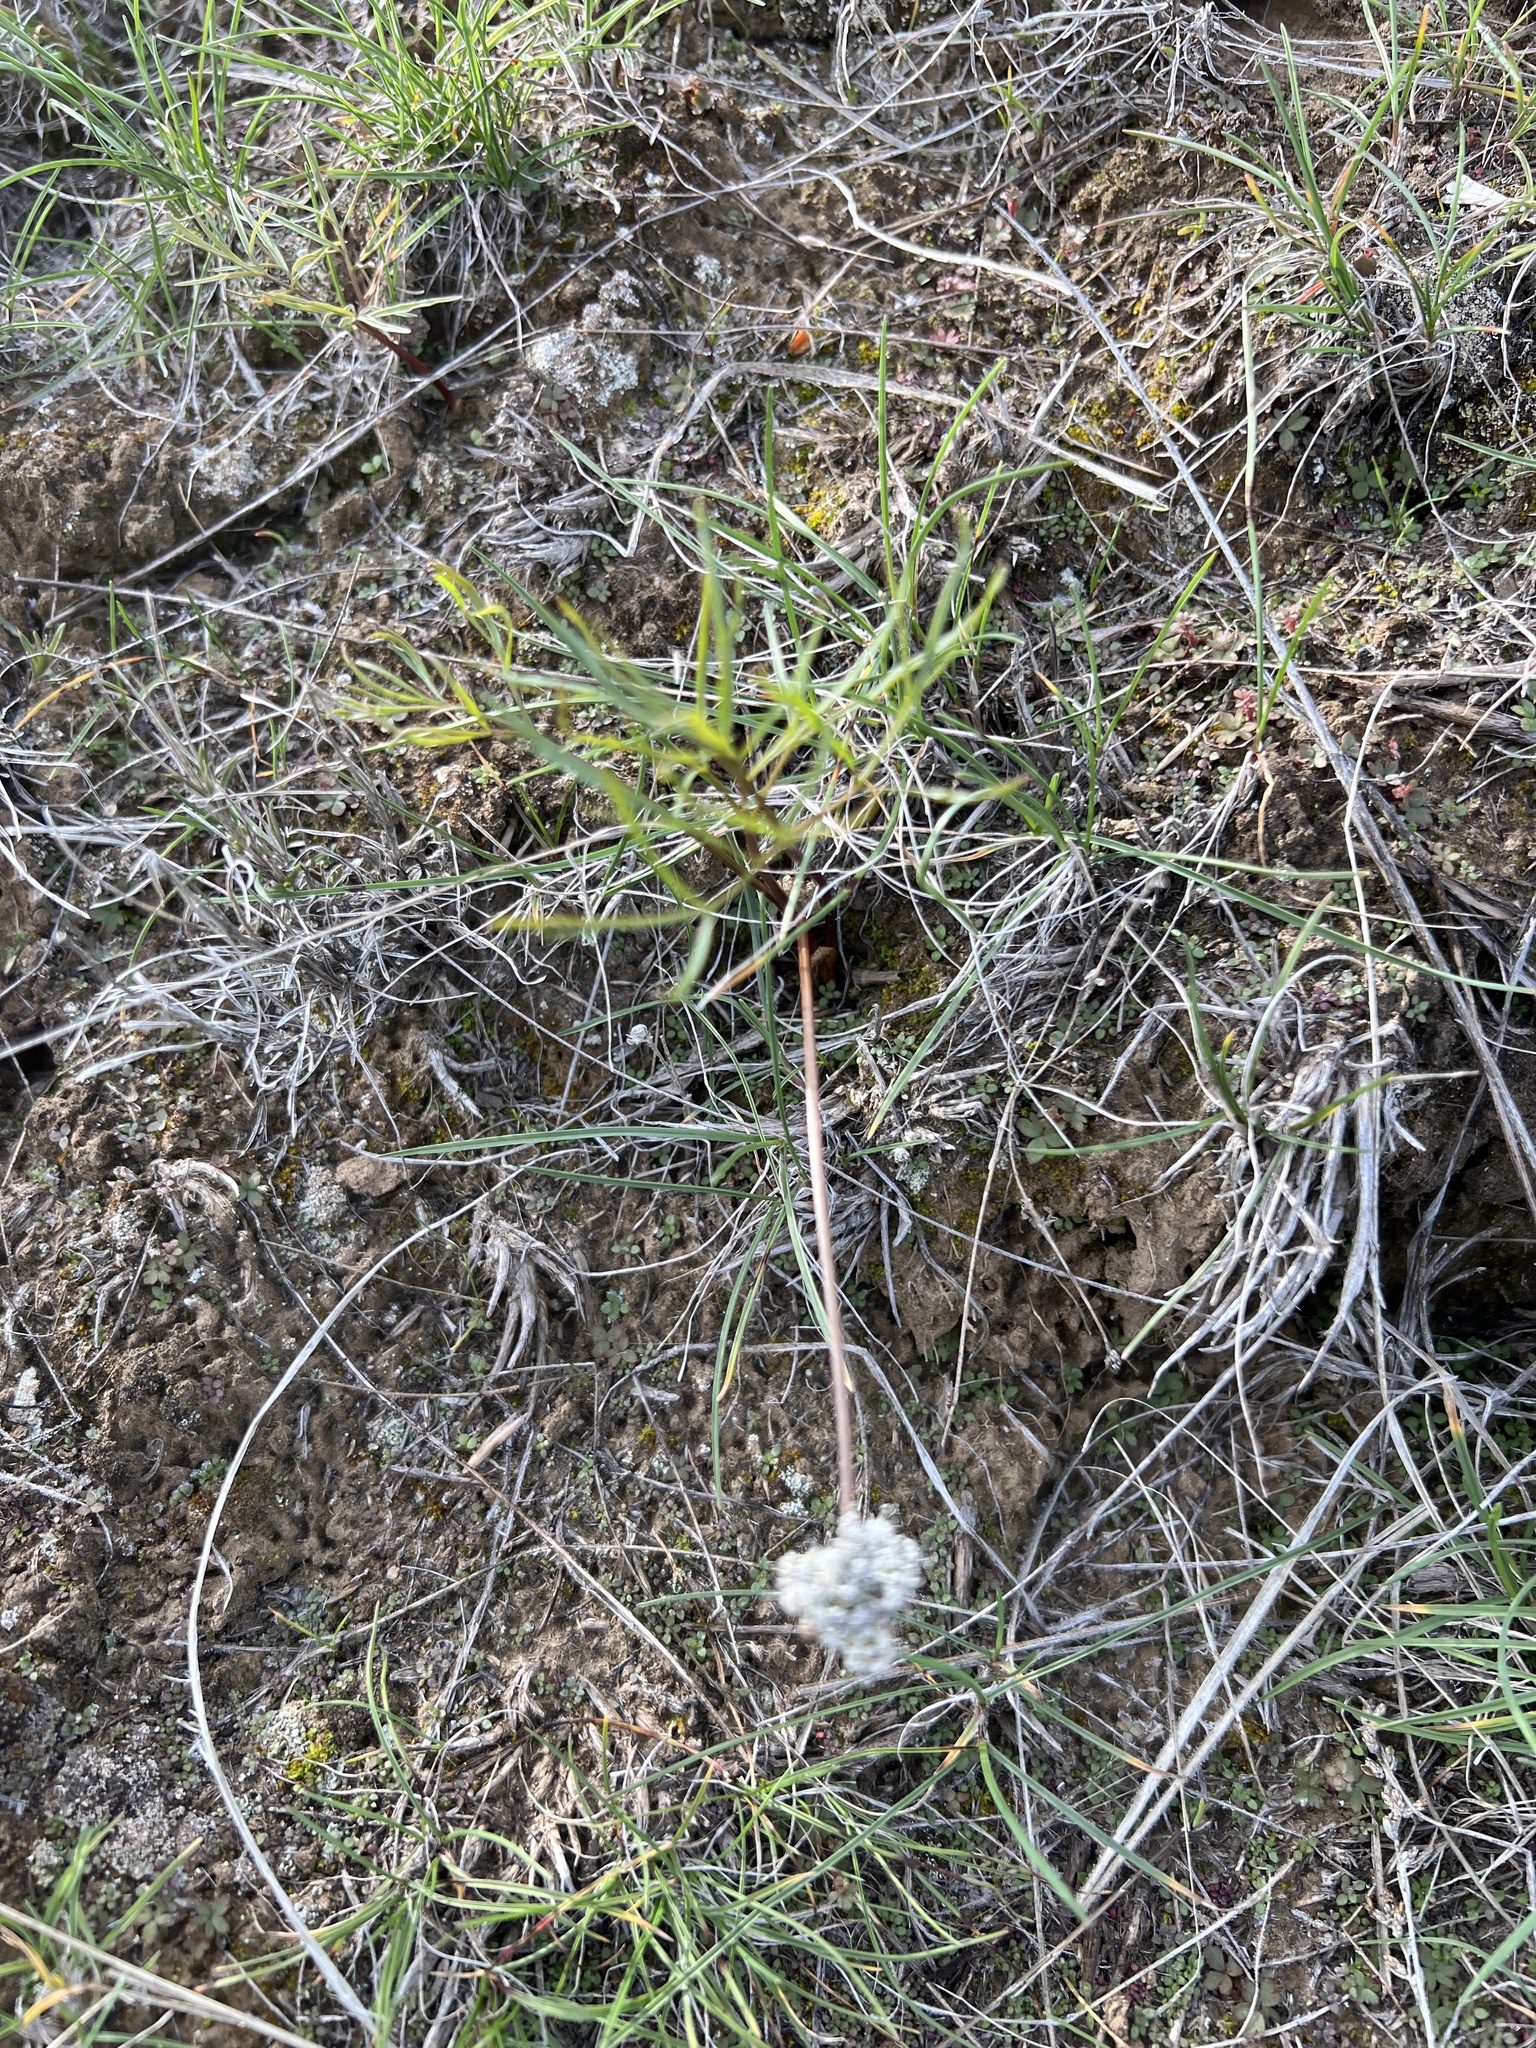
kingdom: Plantae
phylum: Tracheophyta
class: Magnoliopsida
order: Apiales
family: Apiaceae
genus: Lomatium
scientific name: Lomatium geyeri
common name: Geyer's biscuitroot
